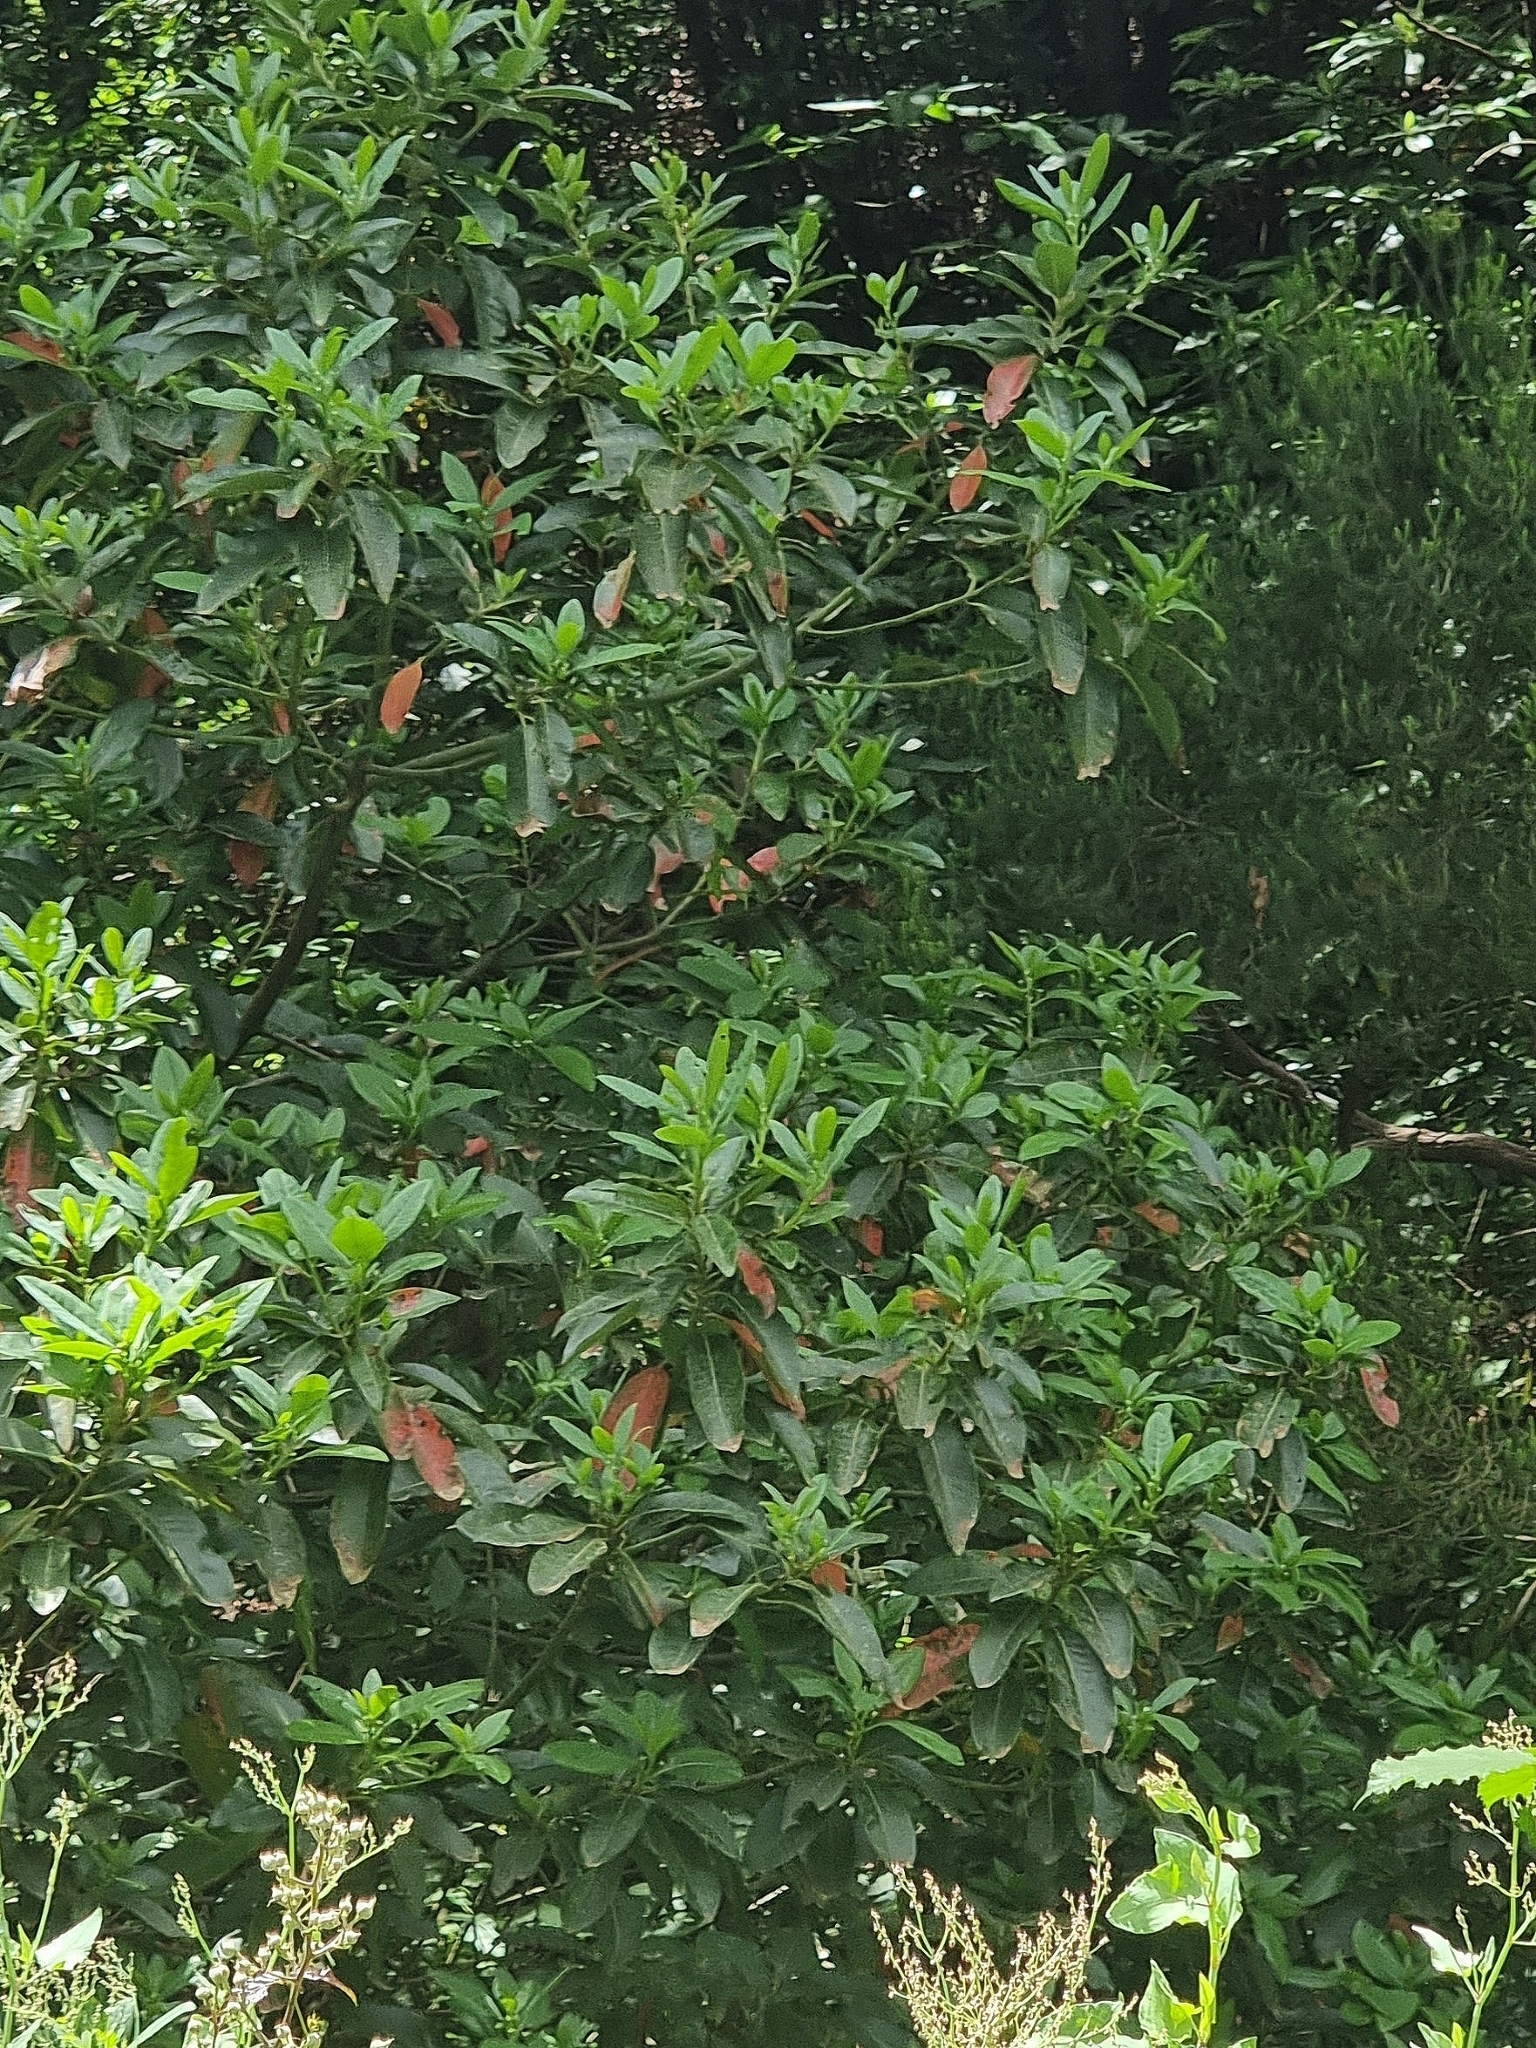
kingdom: Plantae
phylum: Tracheophyta
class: Magnoliopsida
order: Laurales
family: Lauraceae
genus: Persea
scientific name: Persea indica
